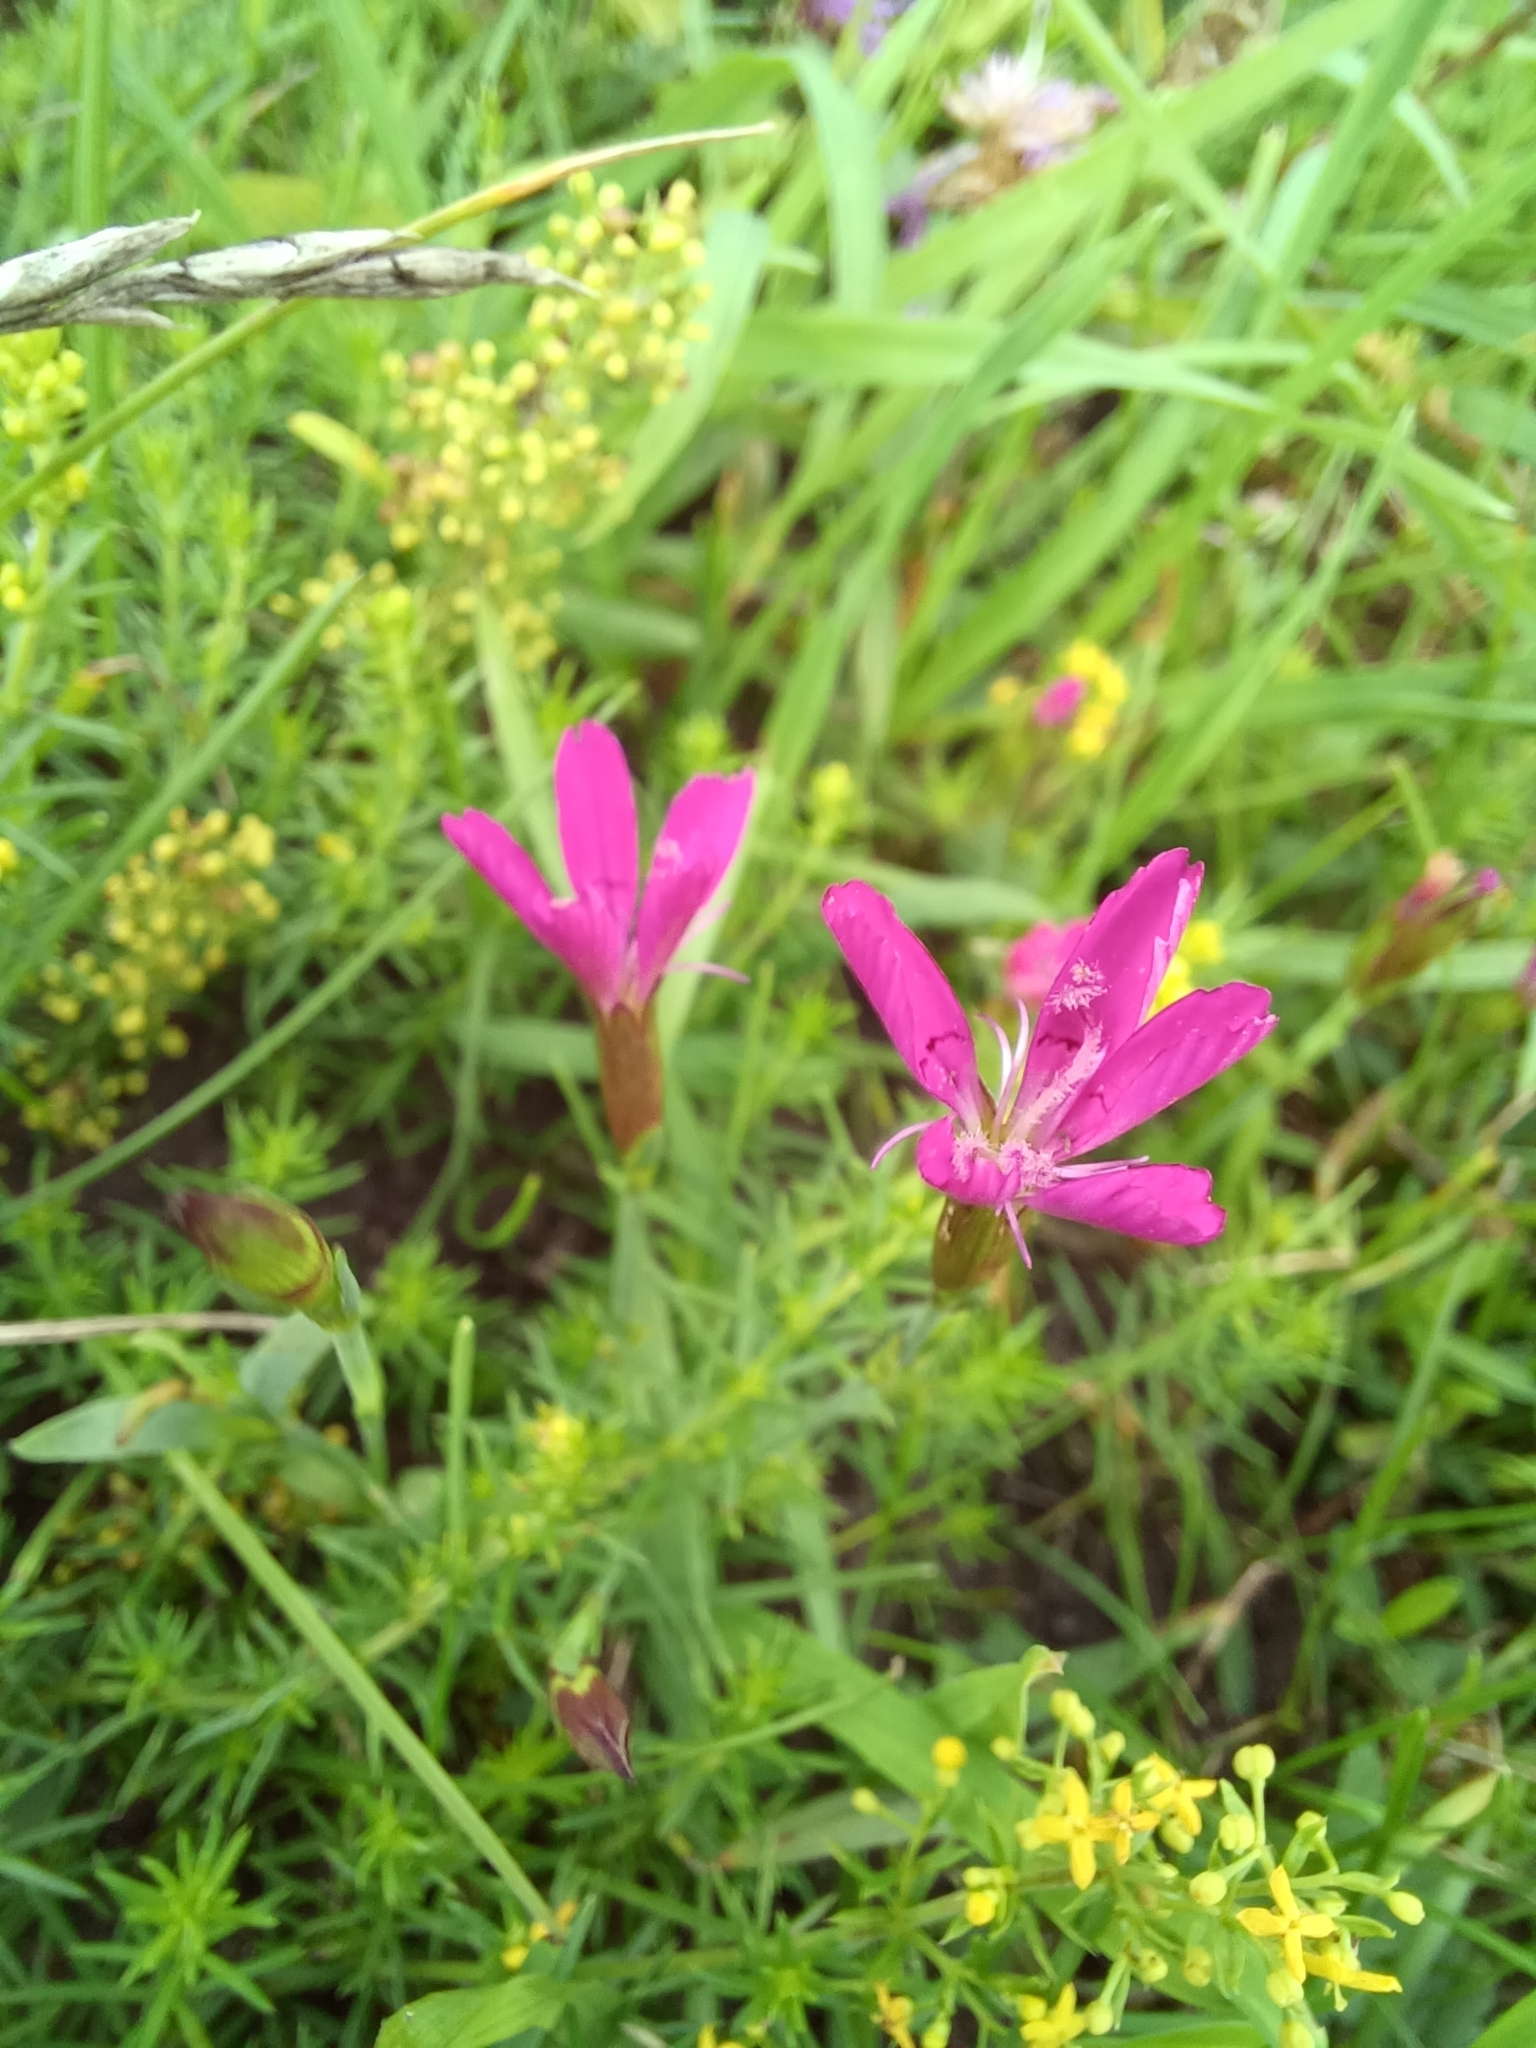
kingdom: Plantae
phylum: Tracheophyta
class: Magnoliopsida
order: Caryophyllales
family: Caryophyllaceae
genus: Dianthus
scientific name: Dianthus deltoides
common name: Maiden pink
